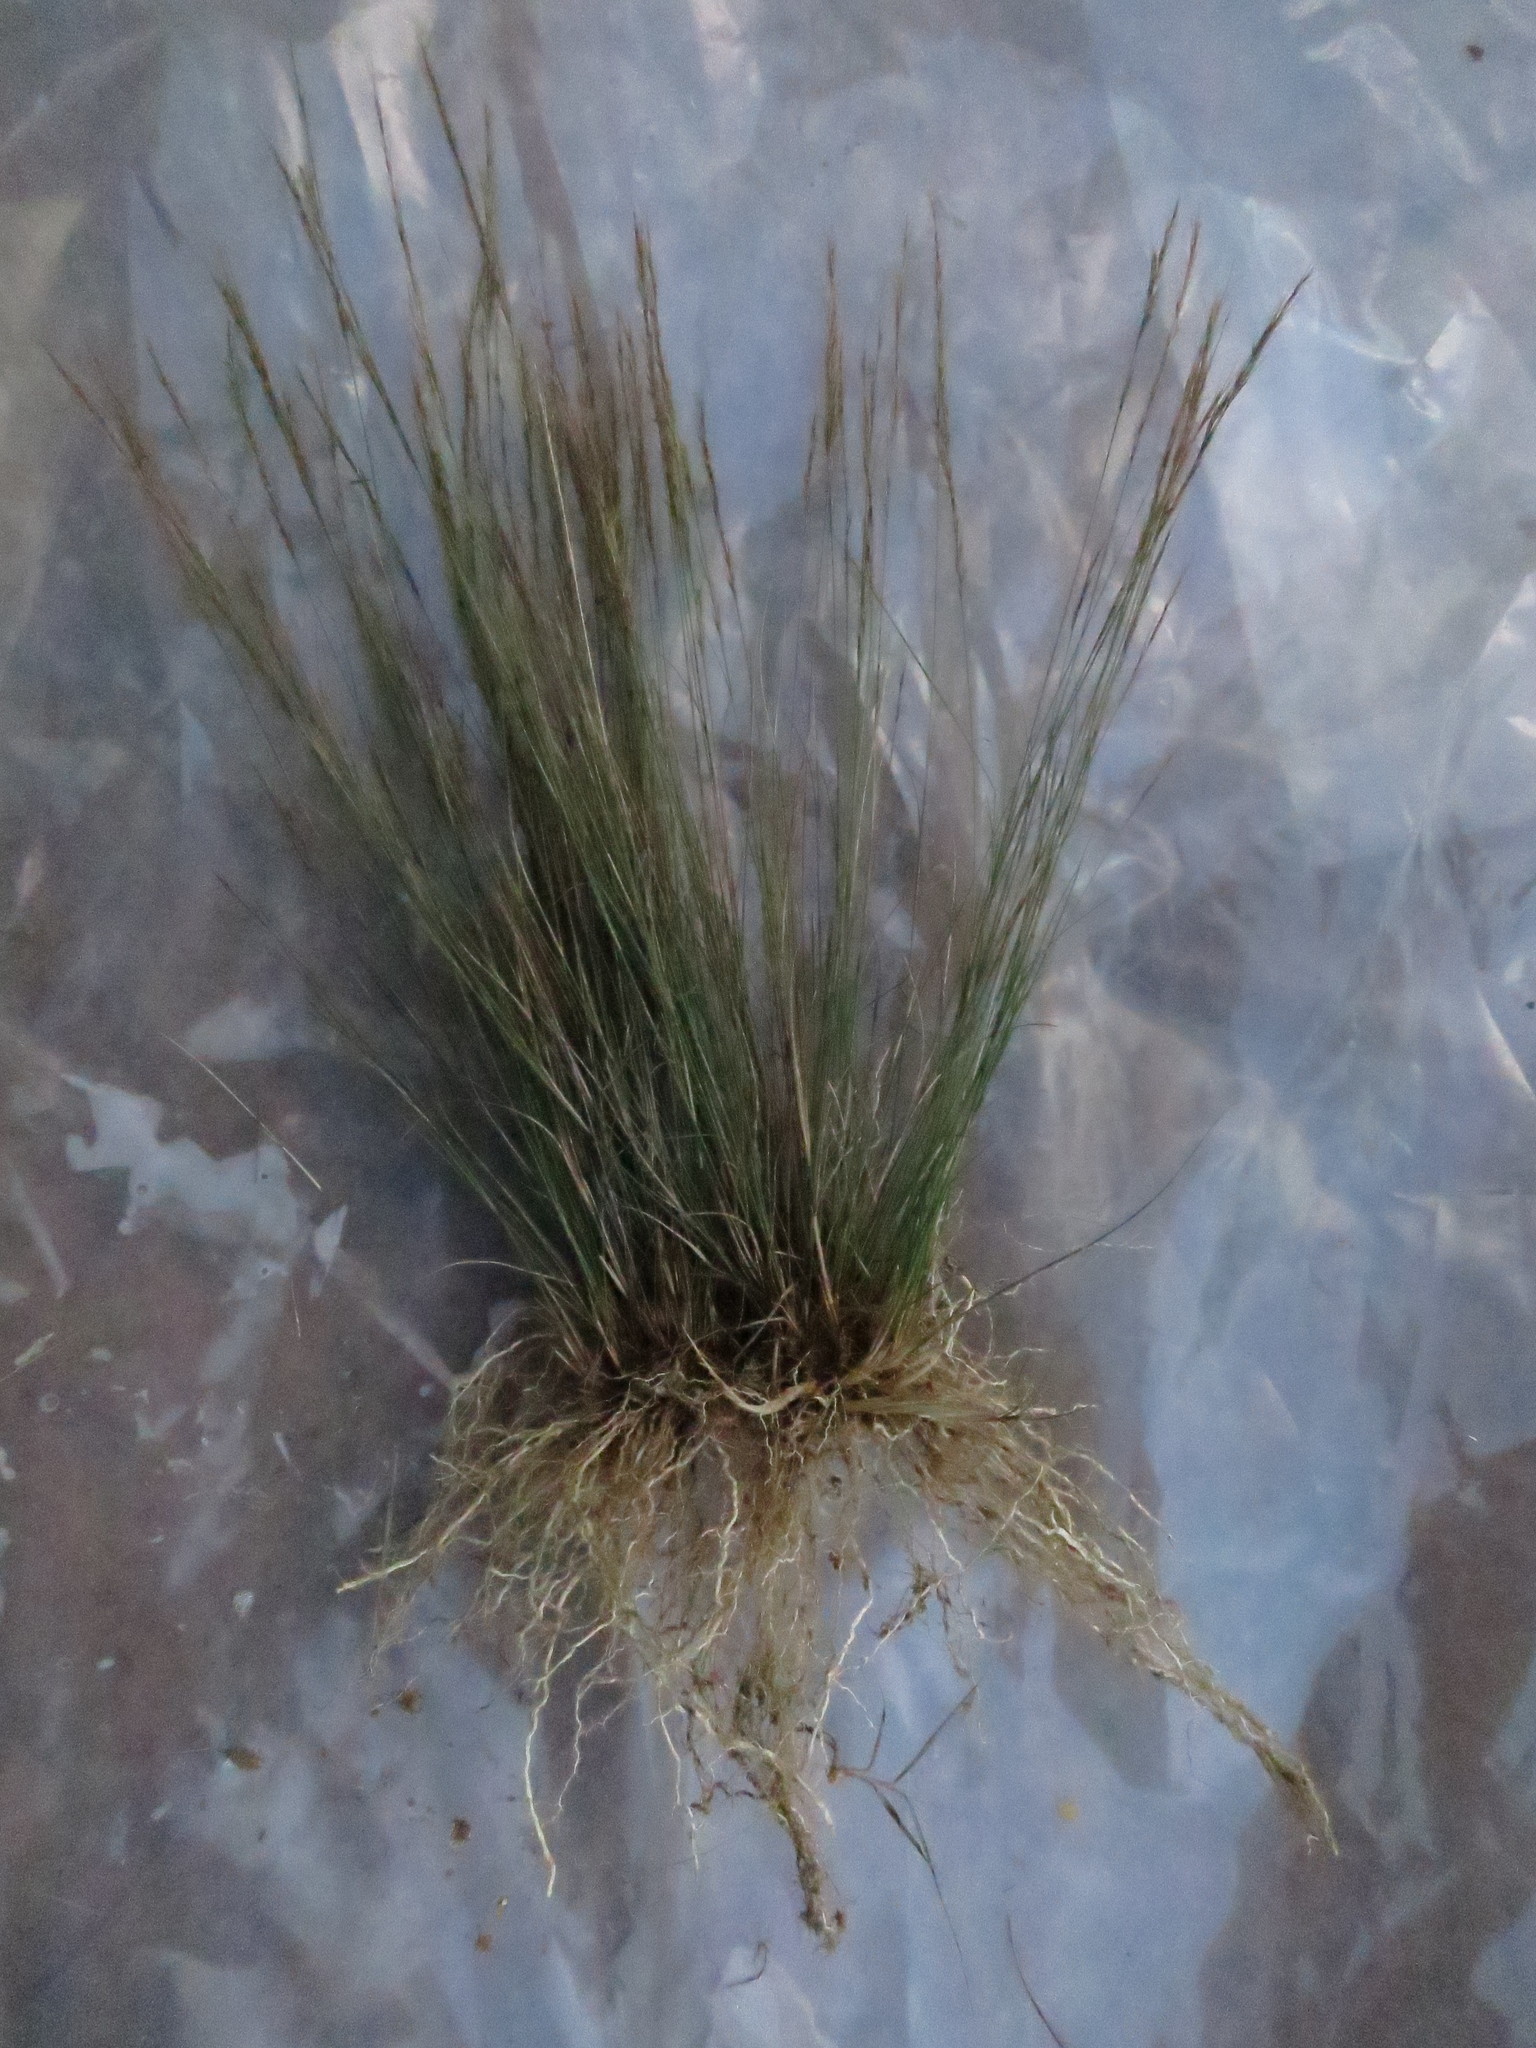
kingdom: Plantae
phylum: Tracheophyta
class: Liliopsida
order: Poales
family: Poaceae
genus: Aristida
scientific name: Aristida tenuissima
